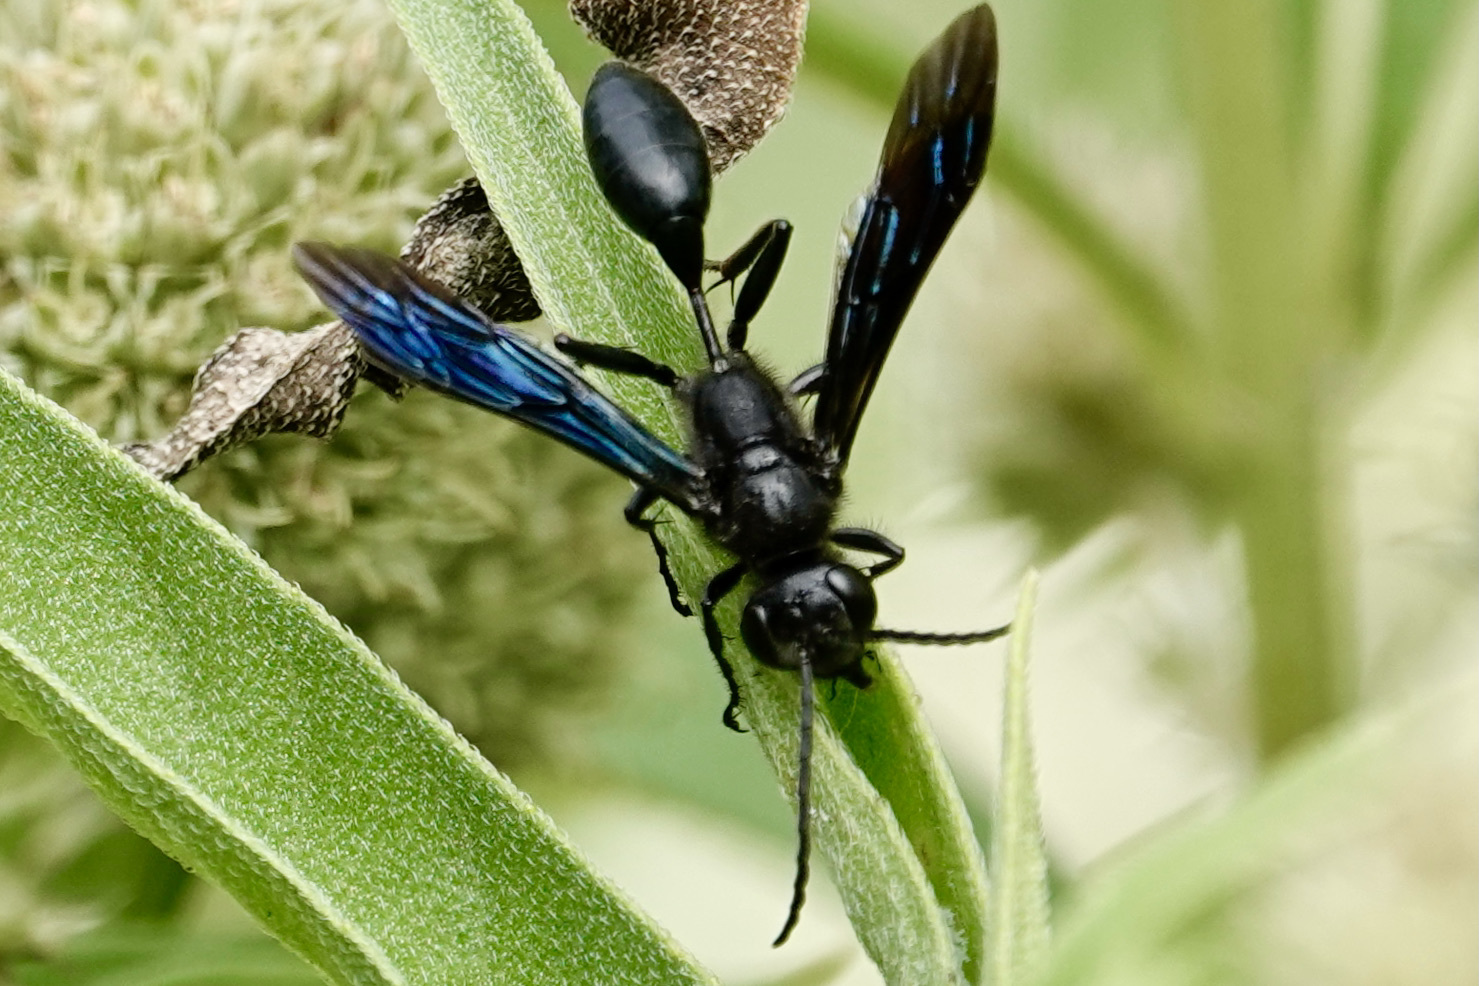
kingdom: Animalia
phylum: Arthropoda
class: Insecta
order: Hymenoptera
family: Sphecidae
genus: Isodontia
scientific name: Isodontia philadelphica
